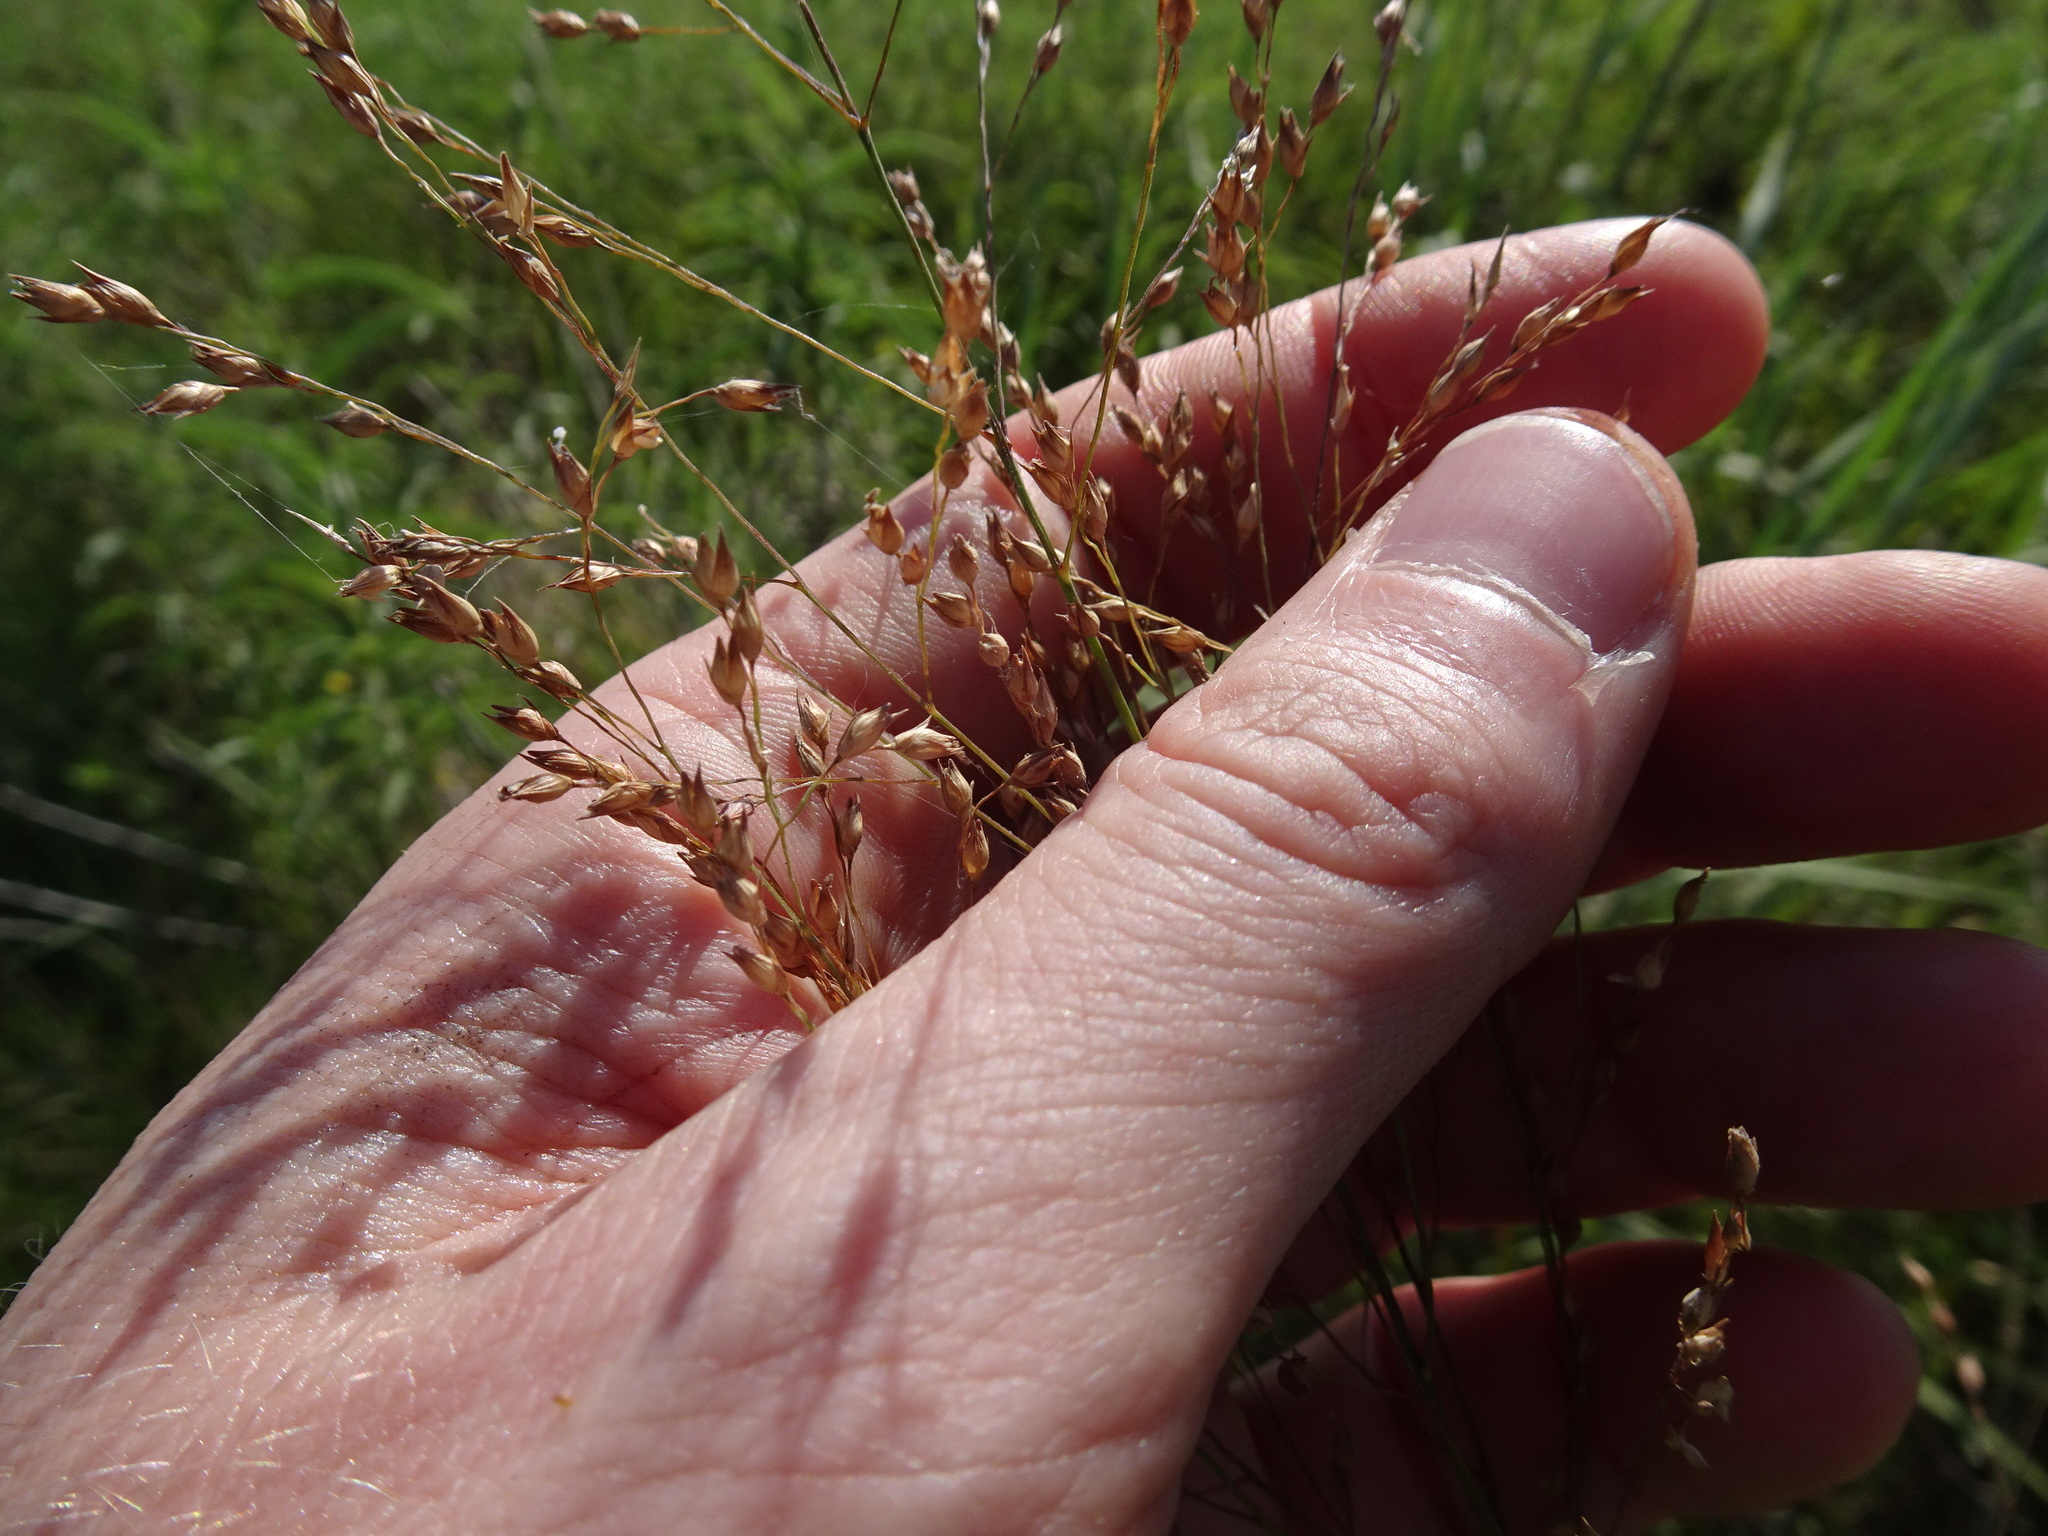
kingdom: Plantae
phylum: Tracheophyta
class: Liliopsida
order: Poales
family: Poaceae
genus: Panicum
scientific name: Panicum virgatum
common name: Switchgrass
